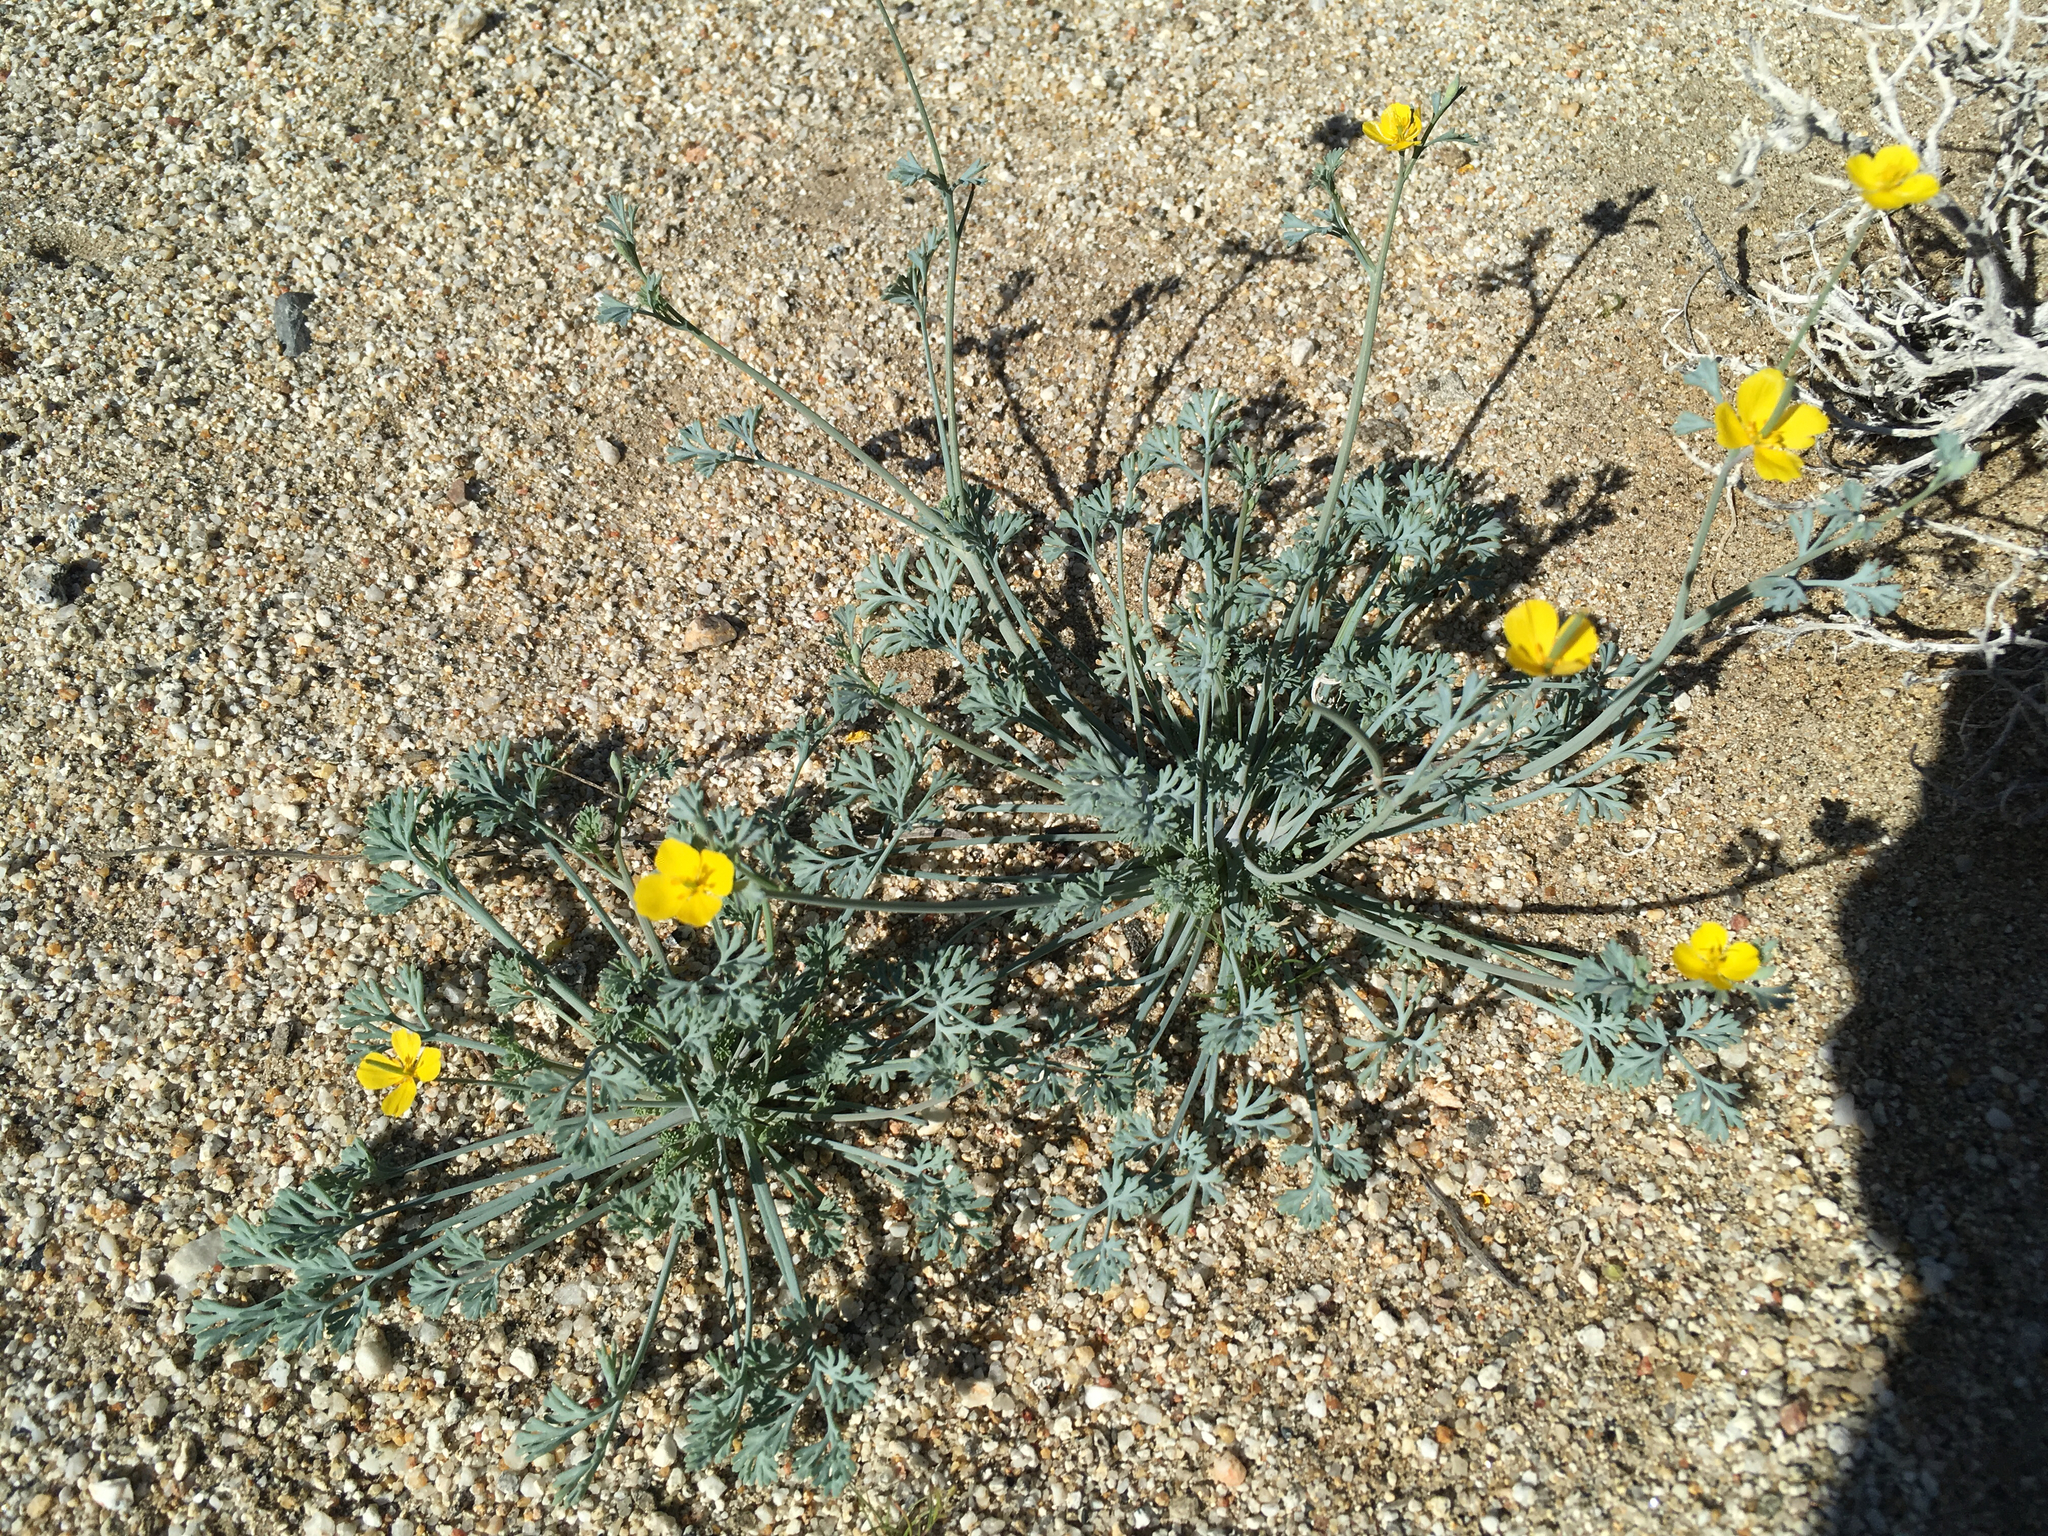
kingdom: Plantae
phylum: Tracheophyta
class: Magnoliopsida
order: Ranunculales
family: Papaveraceae
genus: Eschscholzia
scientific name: Eschscholzia minutiflora
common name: Small-flower california-poppy
